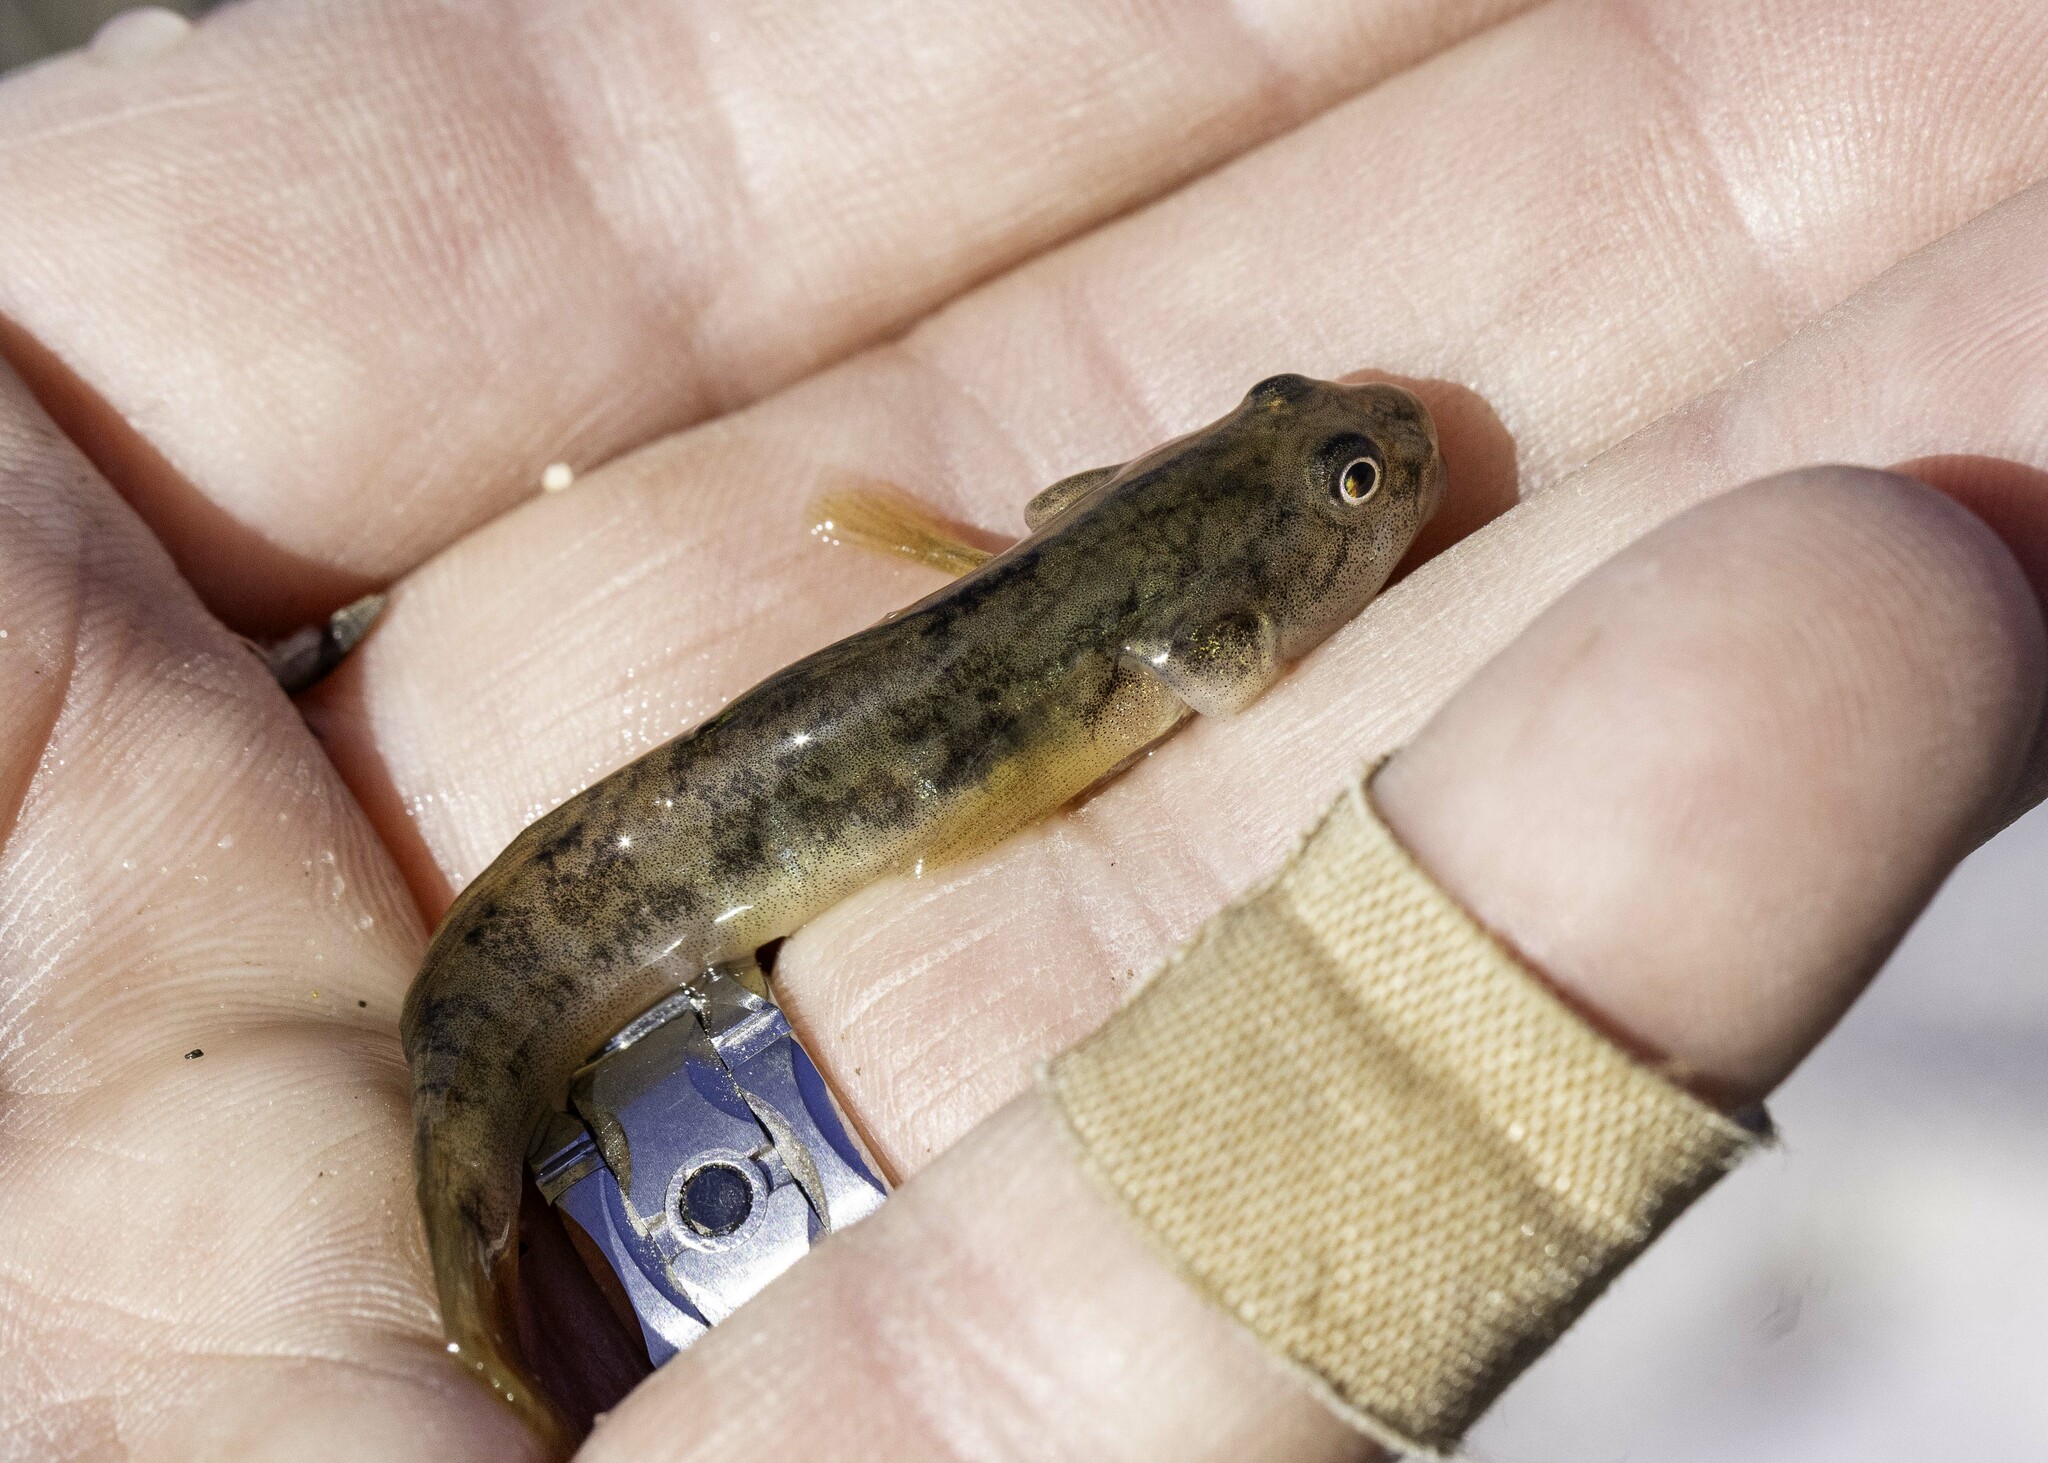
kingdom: Animalia
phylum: Chordata
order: Perciformes
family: Gobiidae
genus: Gillichthys
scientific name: Gillichthys mirabilis
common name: Longjaw mudsucker
